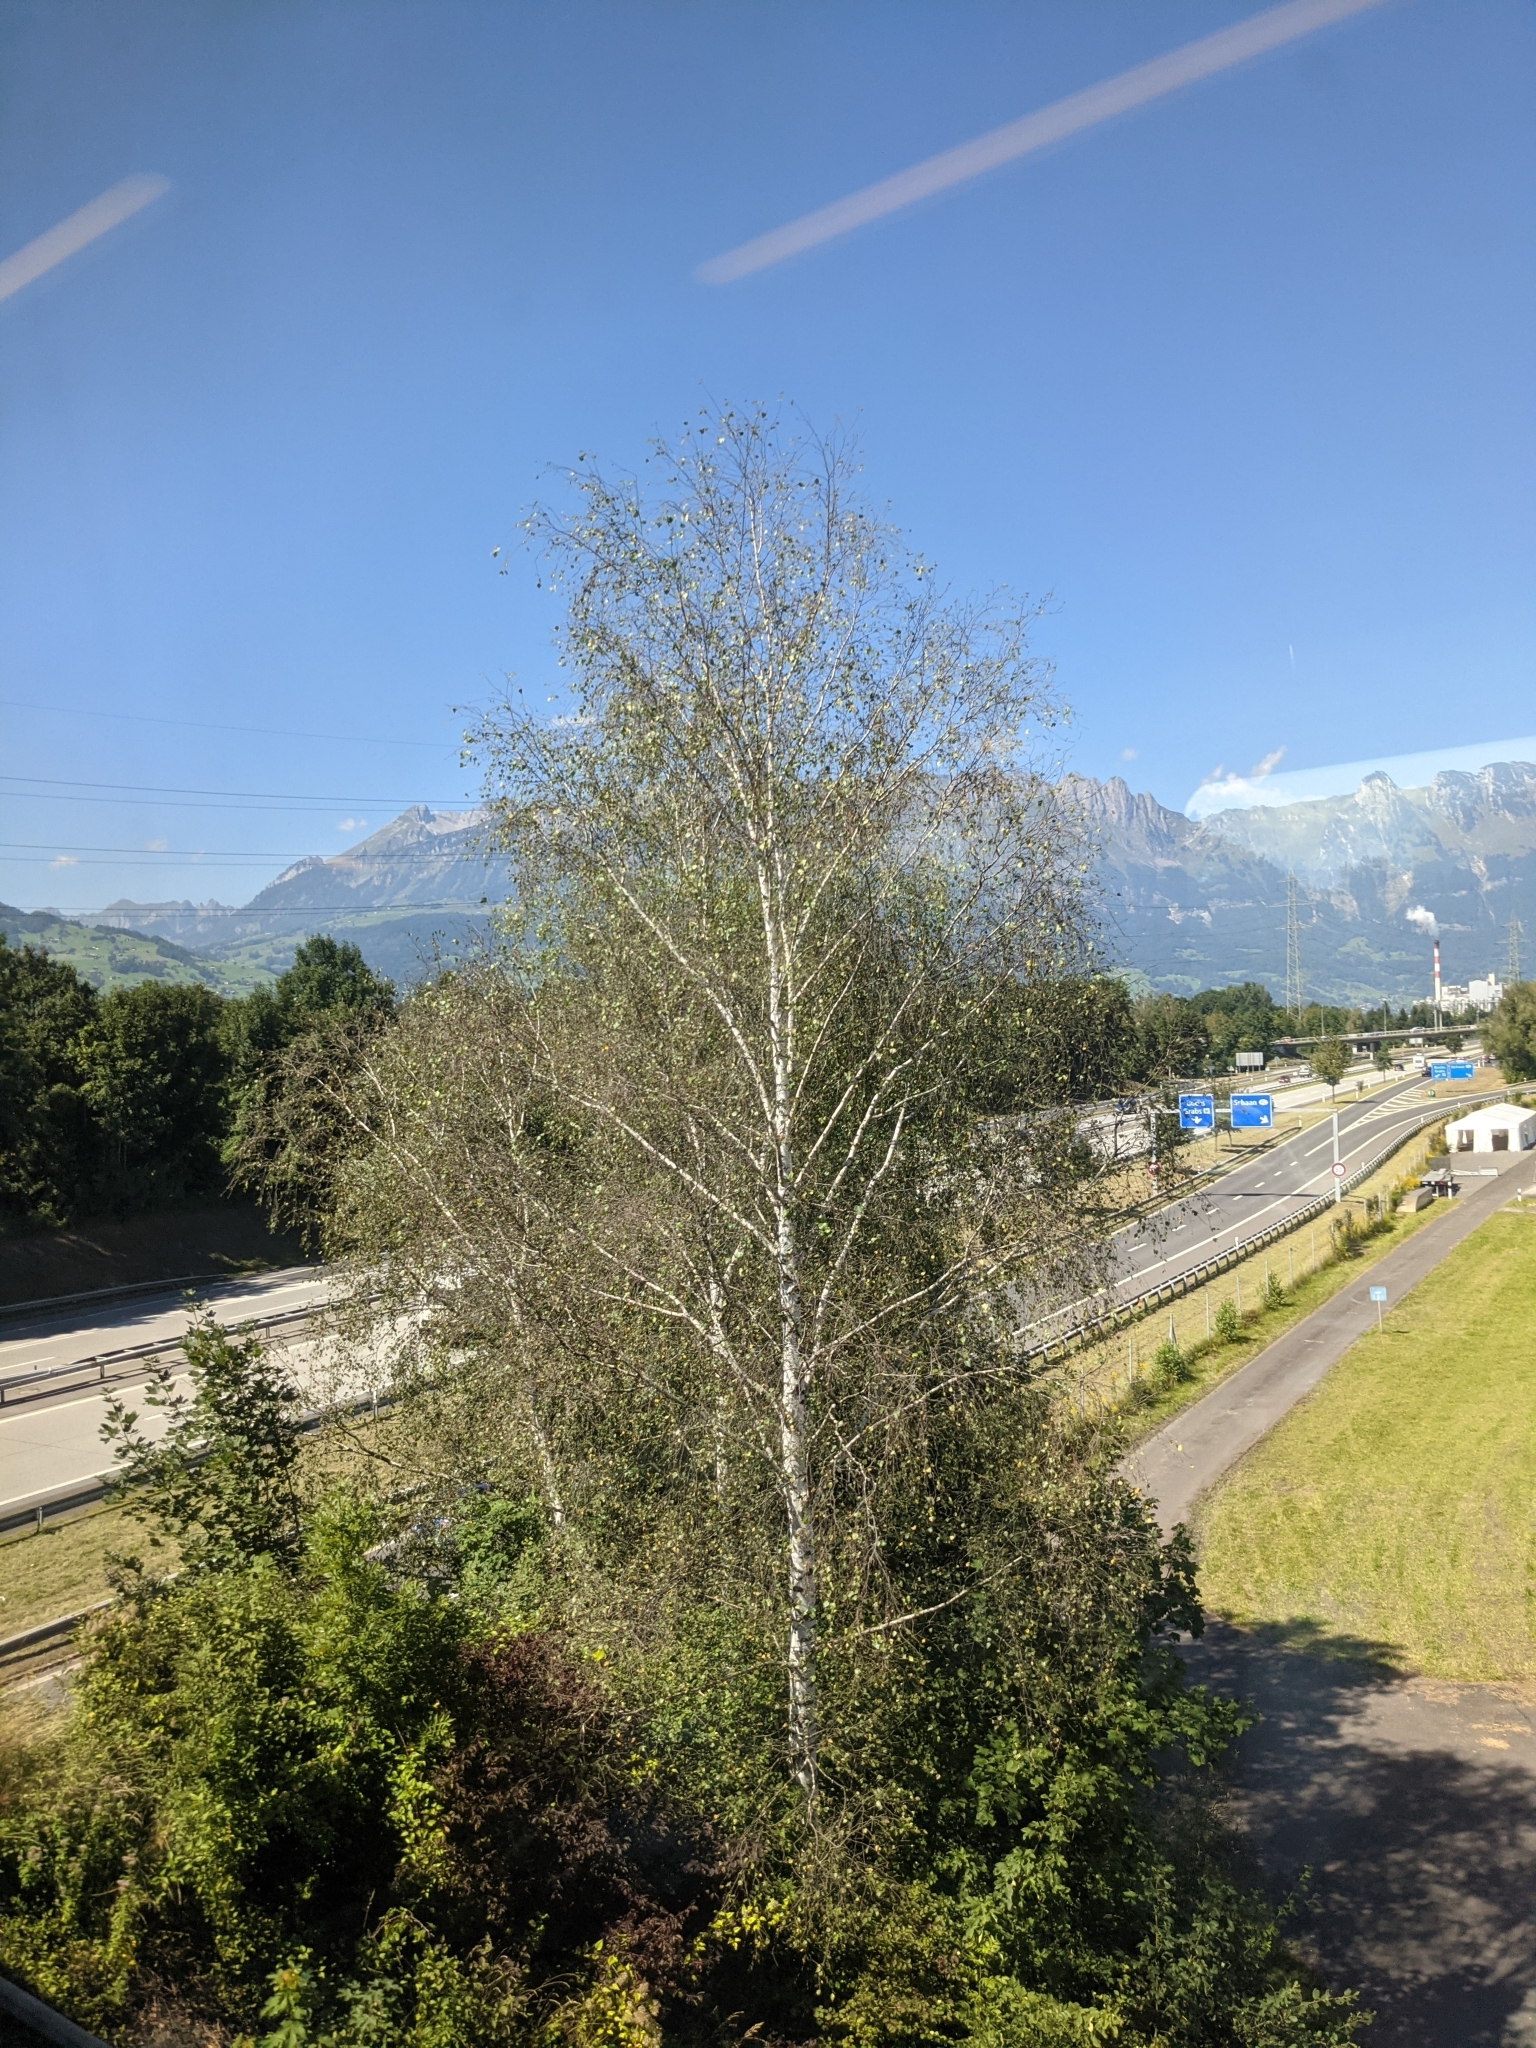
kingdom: Plantae
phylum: Tracheophyta
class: Magnoliopsida
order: Fagales
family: Betulaceae
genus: Betula
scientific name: Betula pendula
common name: Silver birch
